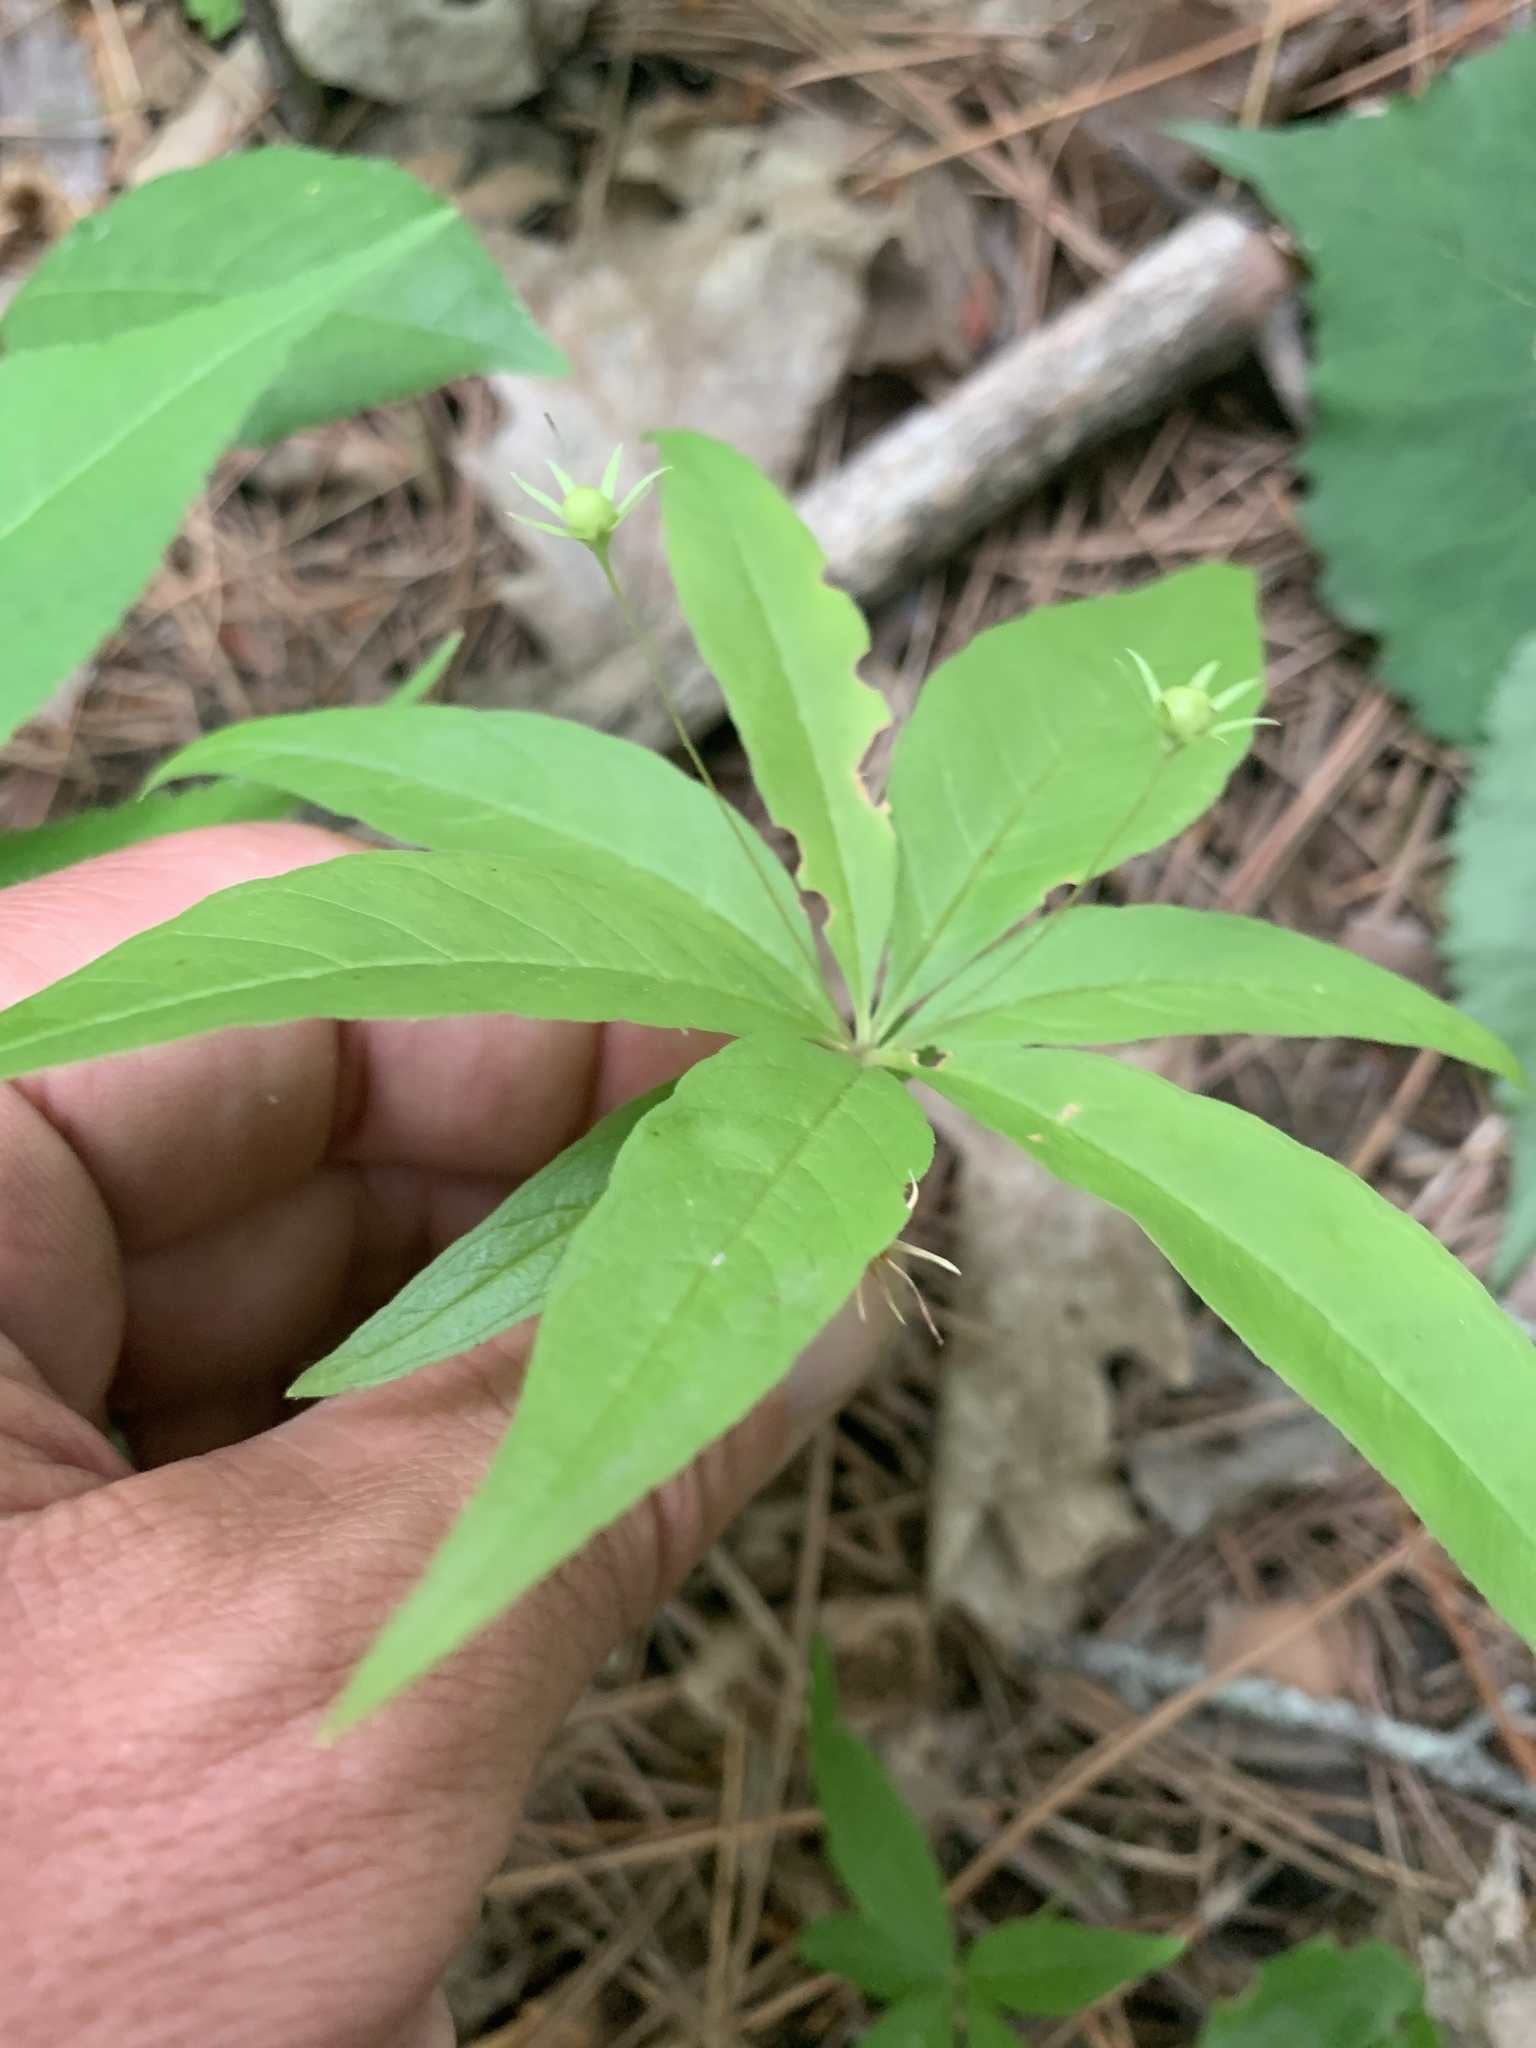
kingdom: Plantae
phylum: Tracheophyta
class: Magnoliopsida
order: Ericales
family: Primulaceae
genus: Lysimachia
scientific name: Lysimachia borealis
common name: American starflower
